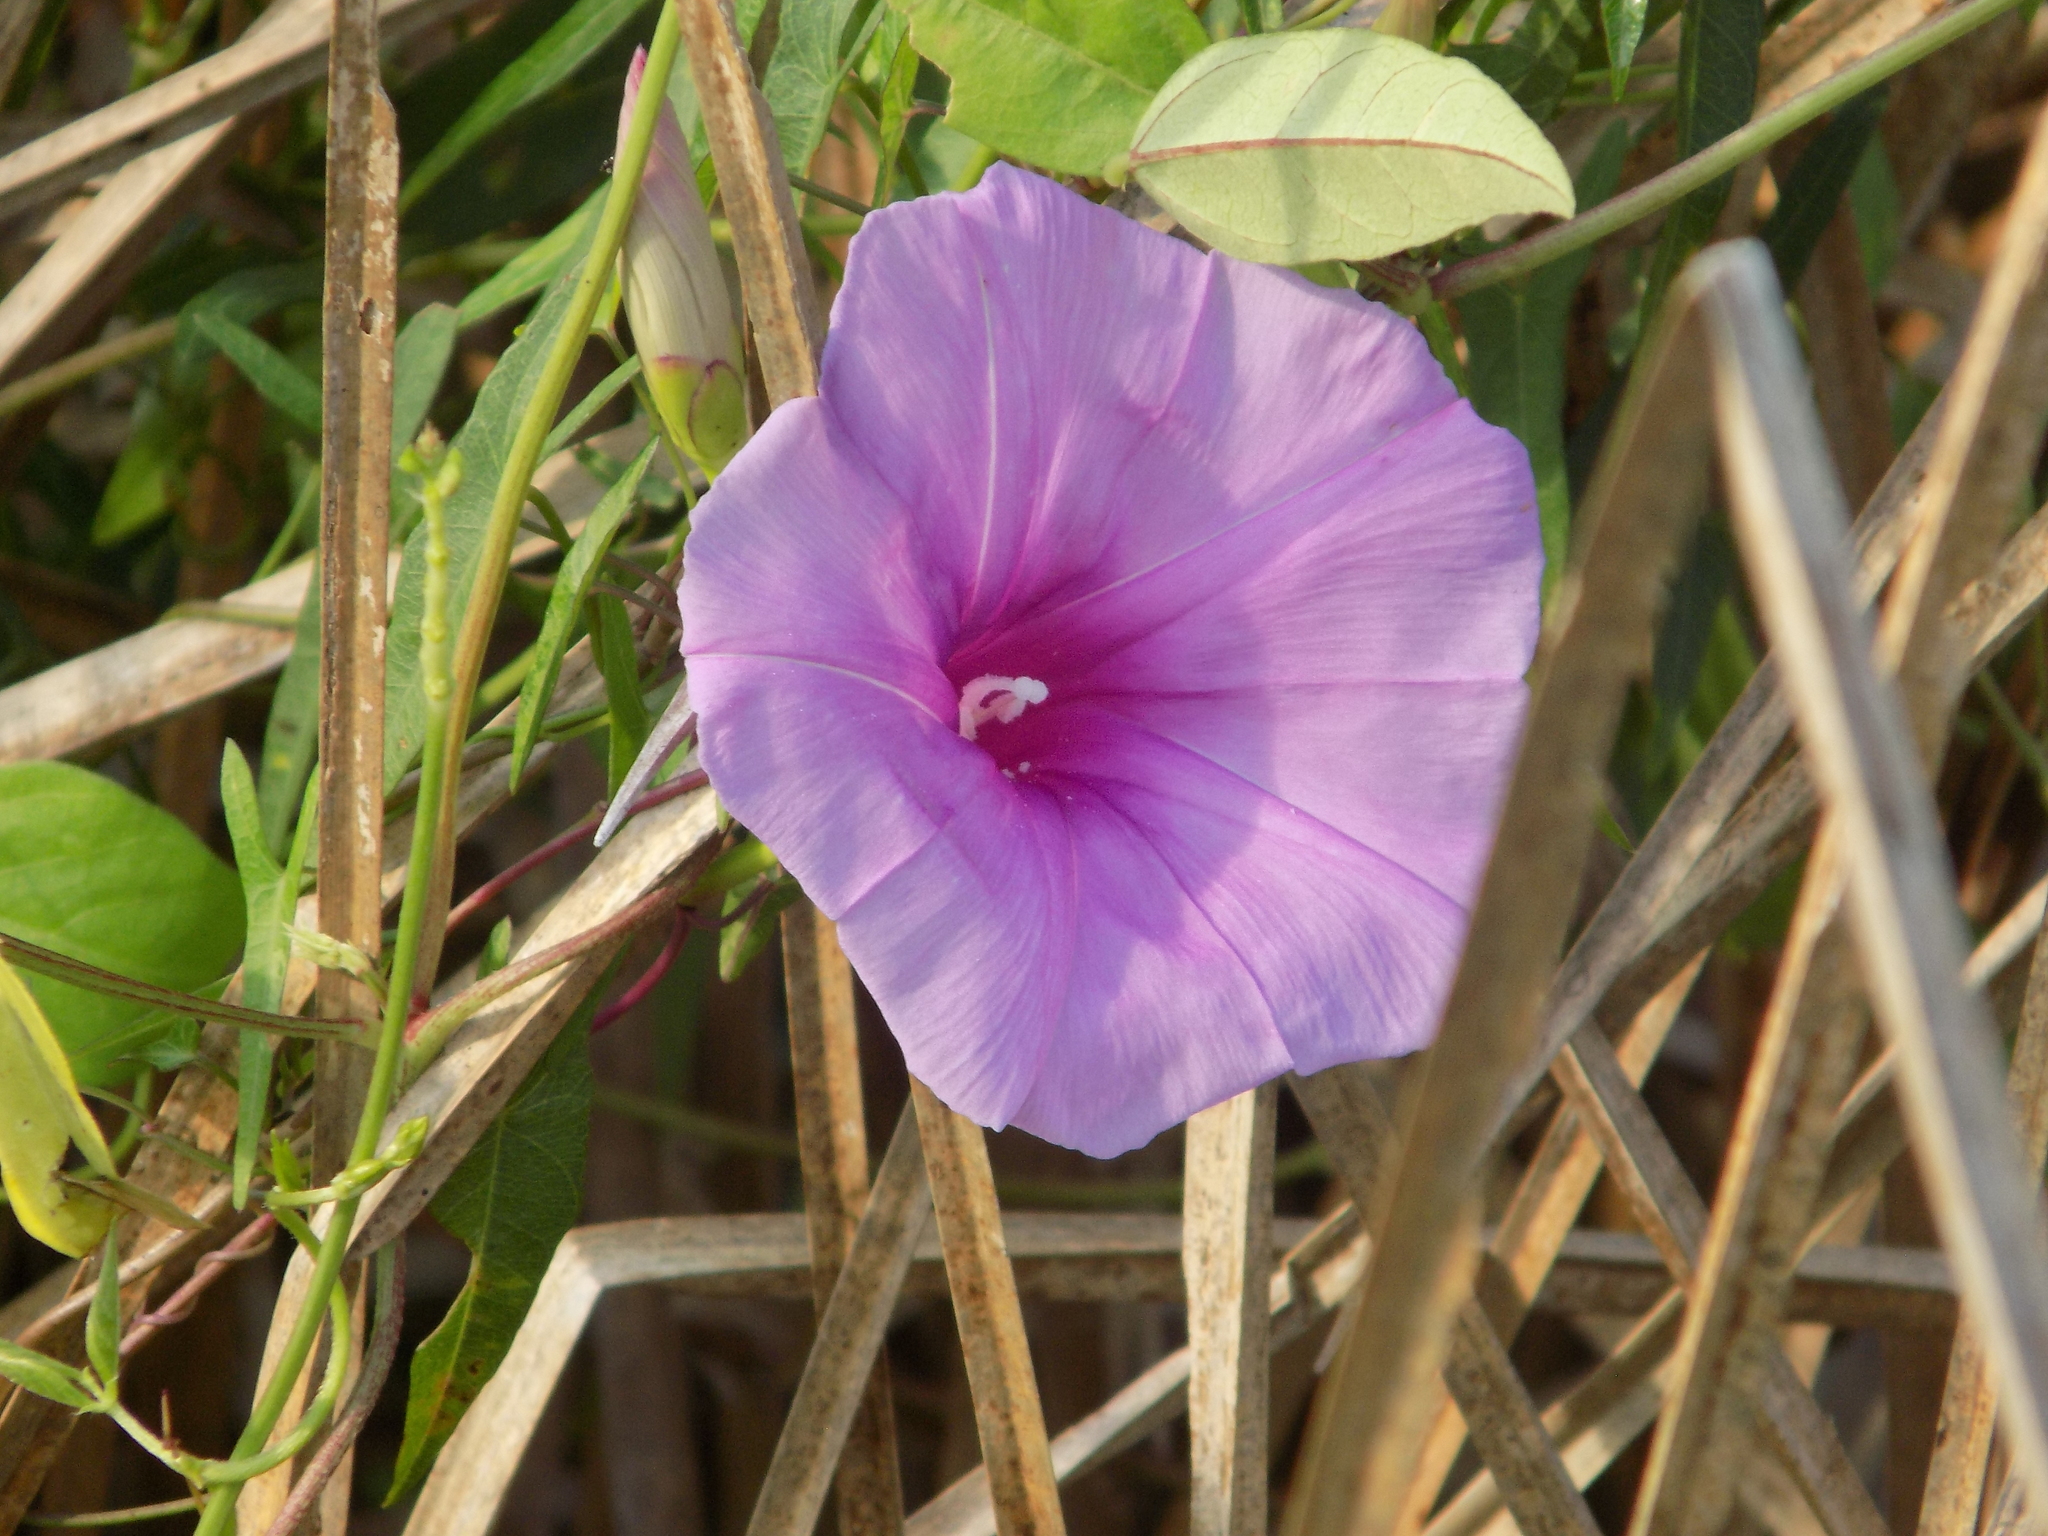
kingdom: Plantae
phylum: Tracheophyta
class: Magnoliopsida
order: Solanales
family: Convolvulaceae
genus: Ipomoea
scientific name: Ipomoea sagittata
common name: Saltmarsh morning glory
